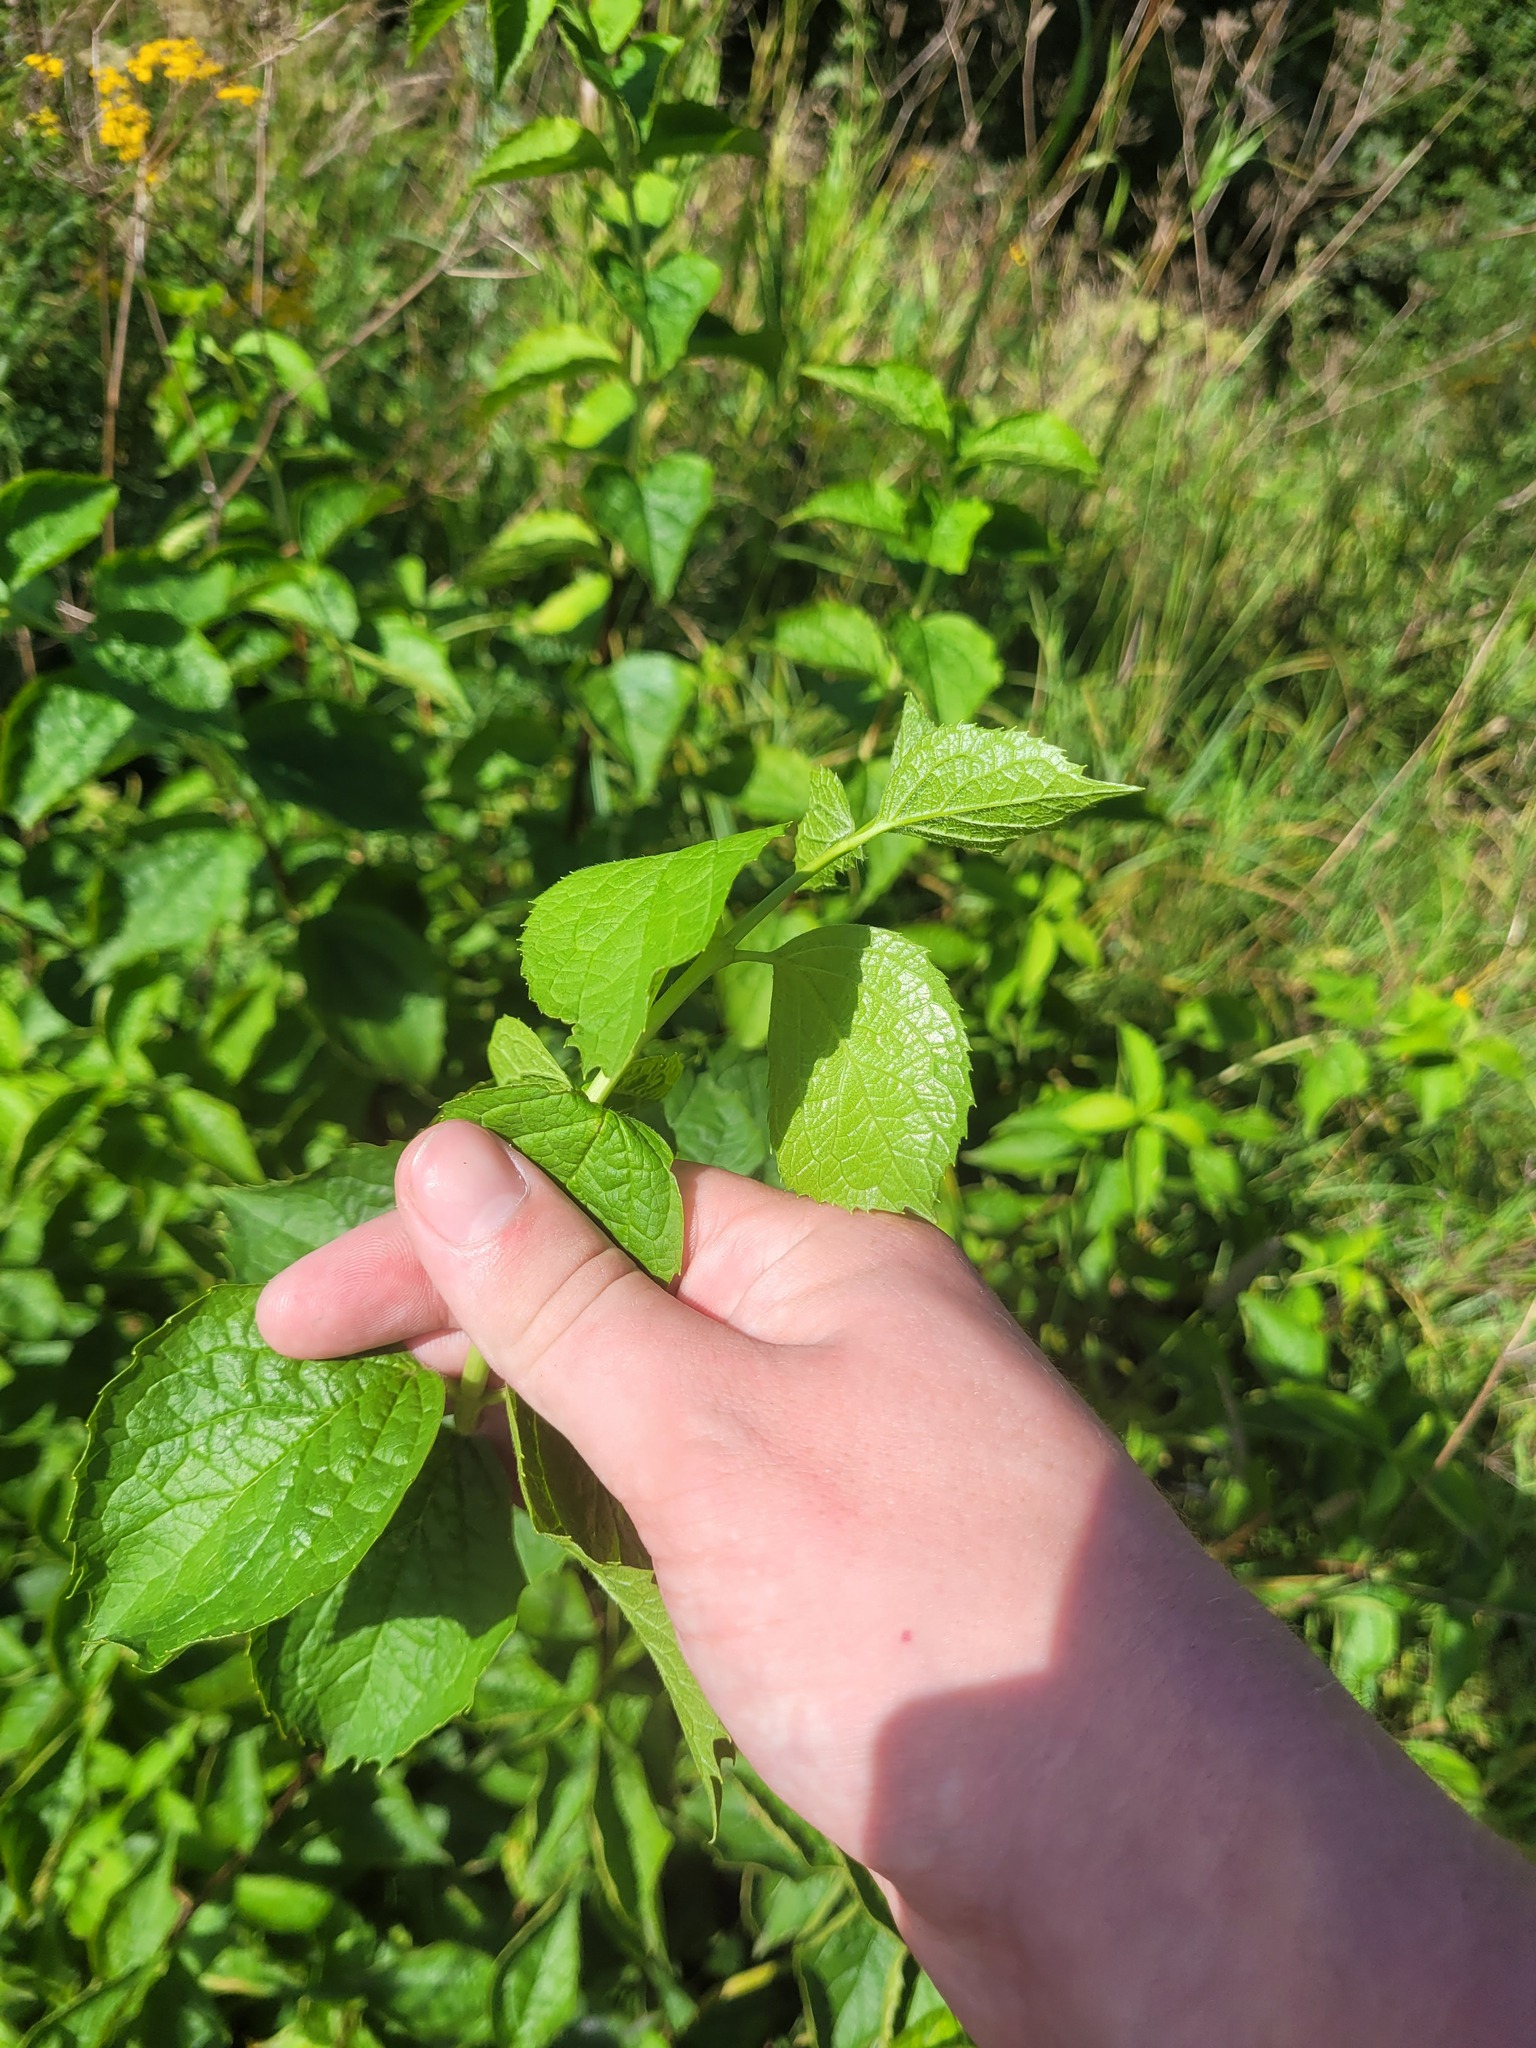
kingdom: Plantae
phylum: Tracheophyta
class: Magnoliopsida
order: Cornales
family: Hydrangeaceae
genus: Philadelphus
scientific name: Philadelphus coronarius
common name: Mock orange
